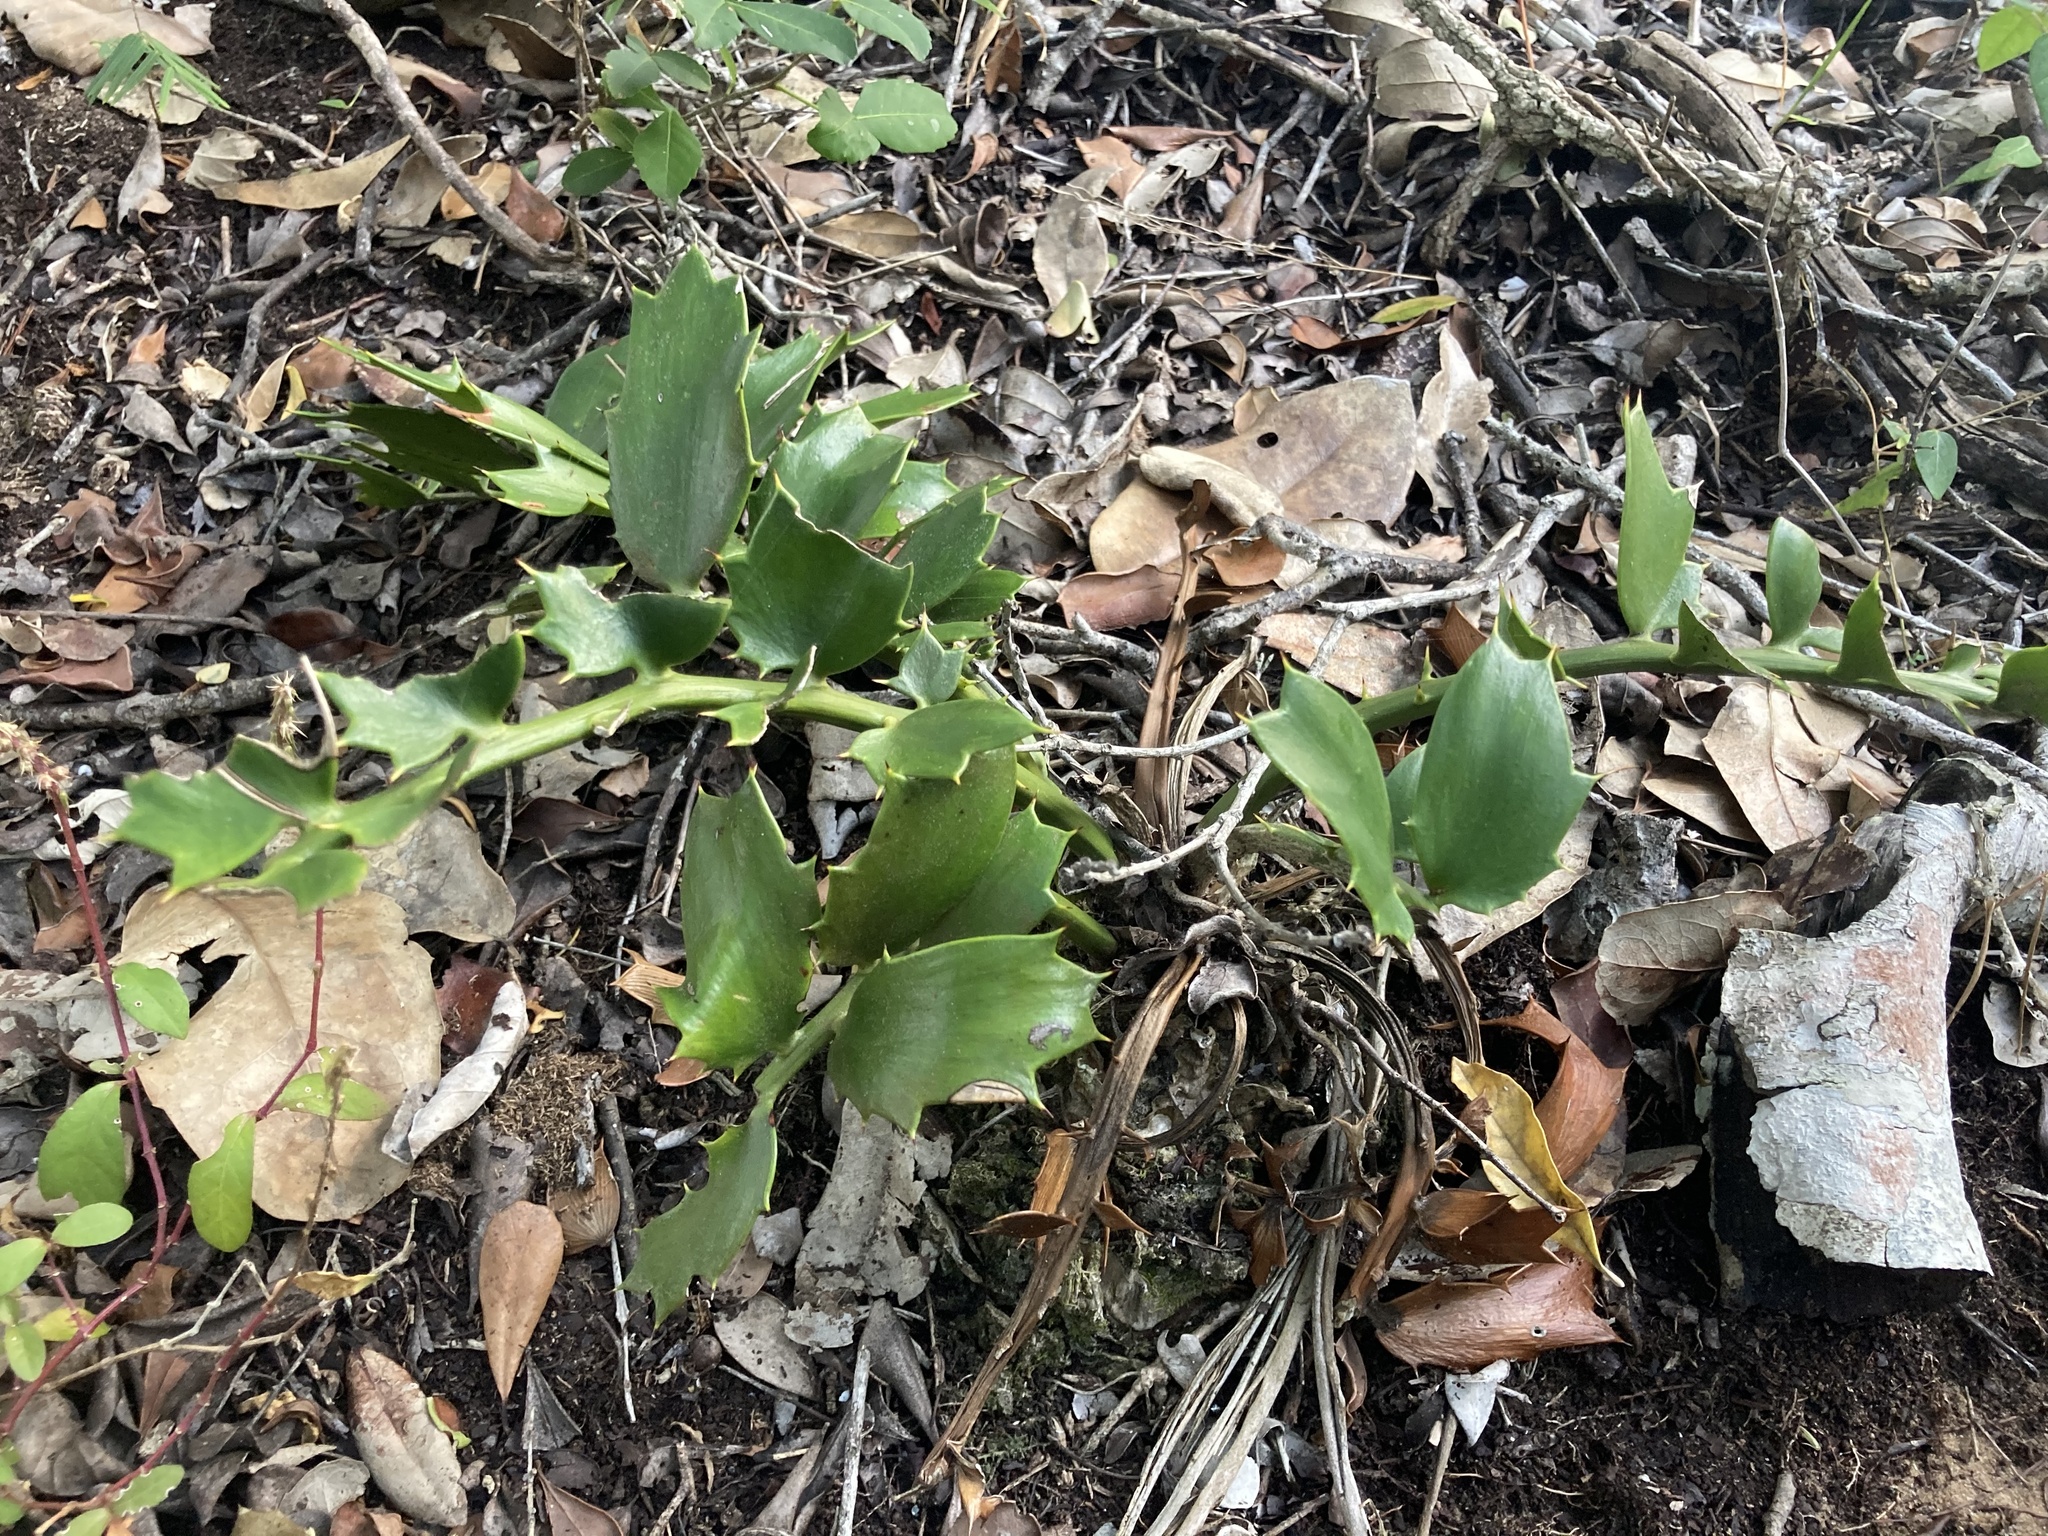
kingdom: Plantae
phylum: Tracheophyta
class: Cycadopsida
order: Cycadales
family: Zamiaceae
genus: Encephalartos
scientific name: Encephalartos ferox
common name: Kozi cycad
